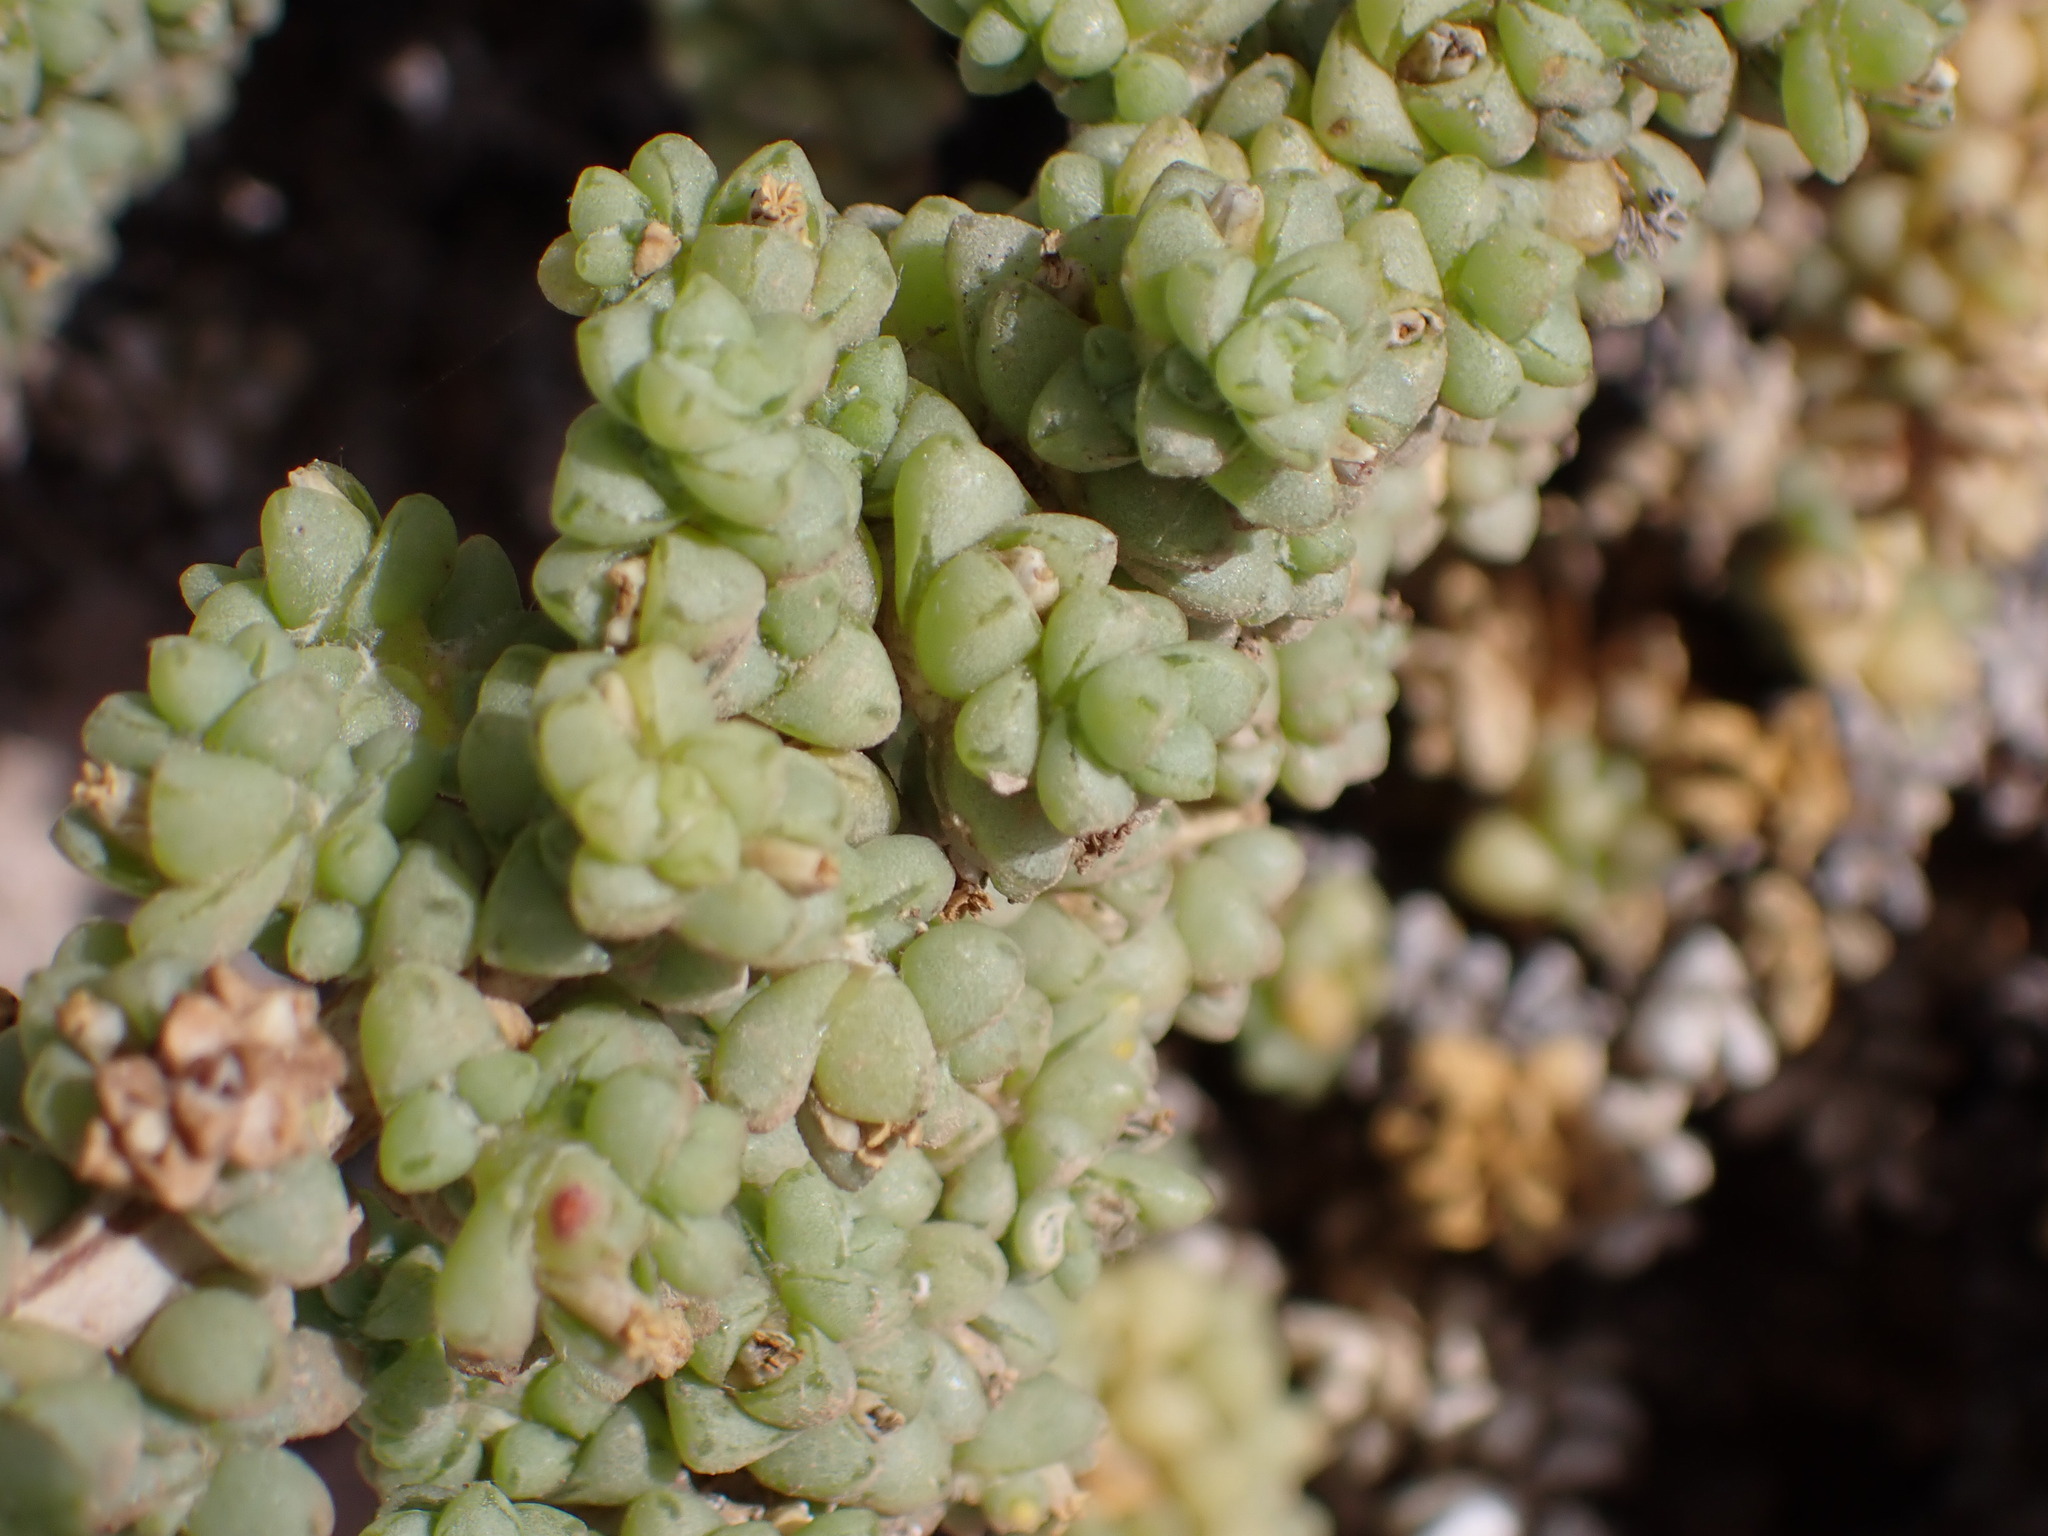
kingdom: Plantae
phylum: Tracheophyta
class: Magnoliopsida
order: Caryophyllales
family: Amaranthaceae
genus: Traganum
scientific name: Traganum moquinii
